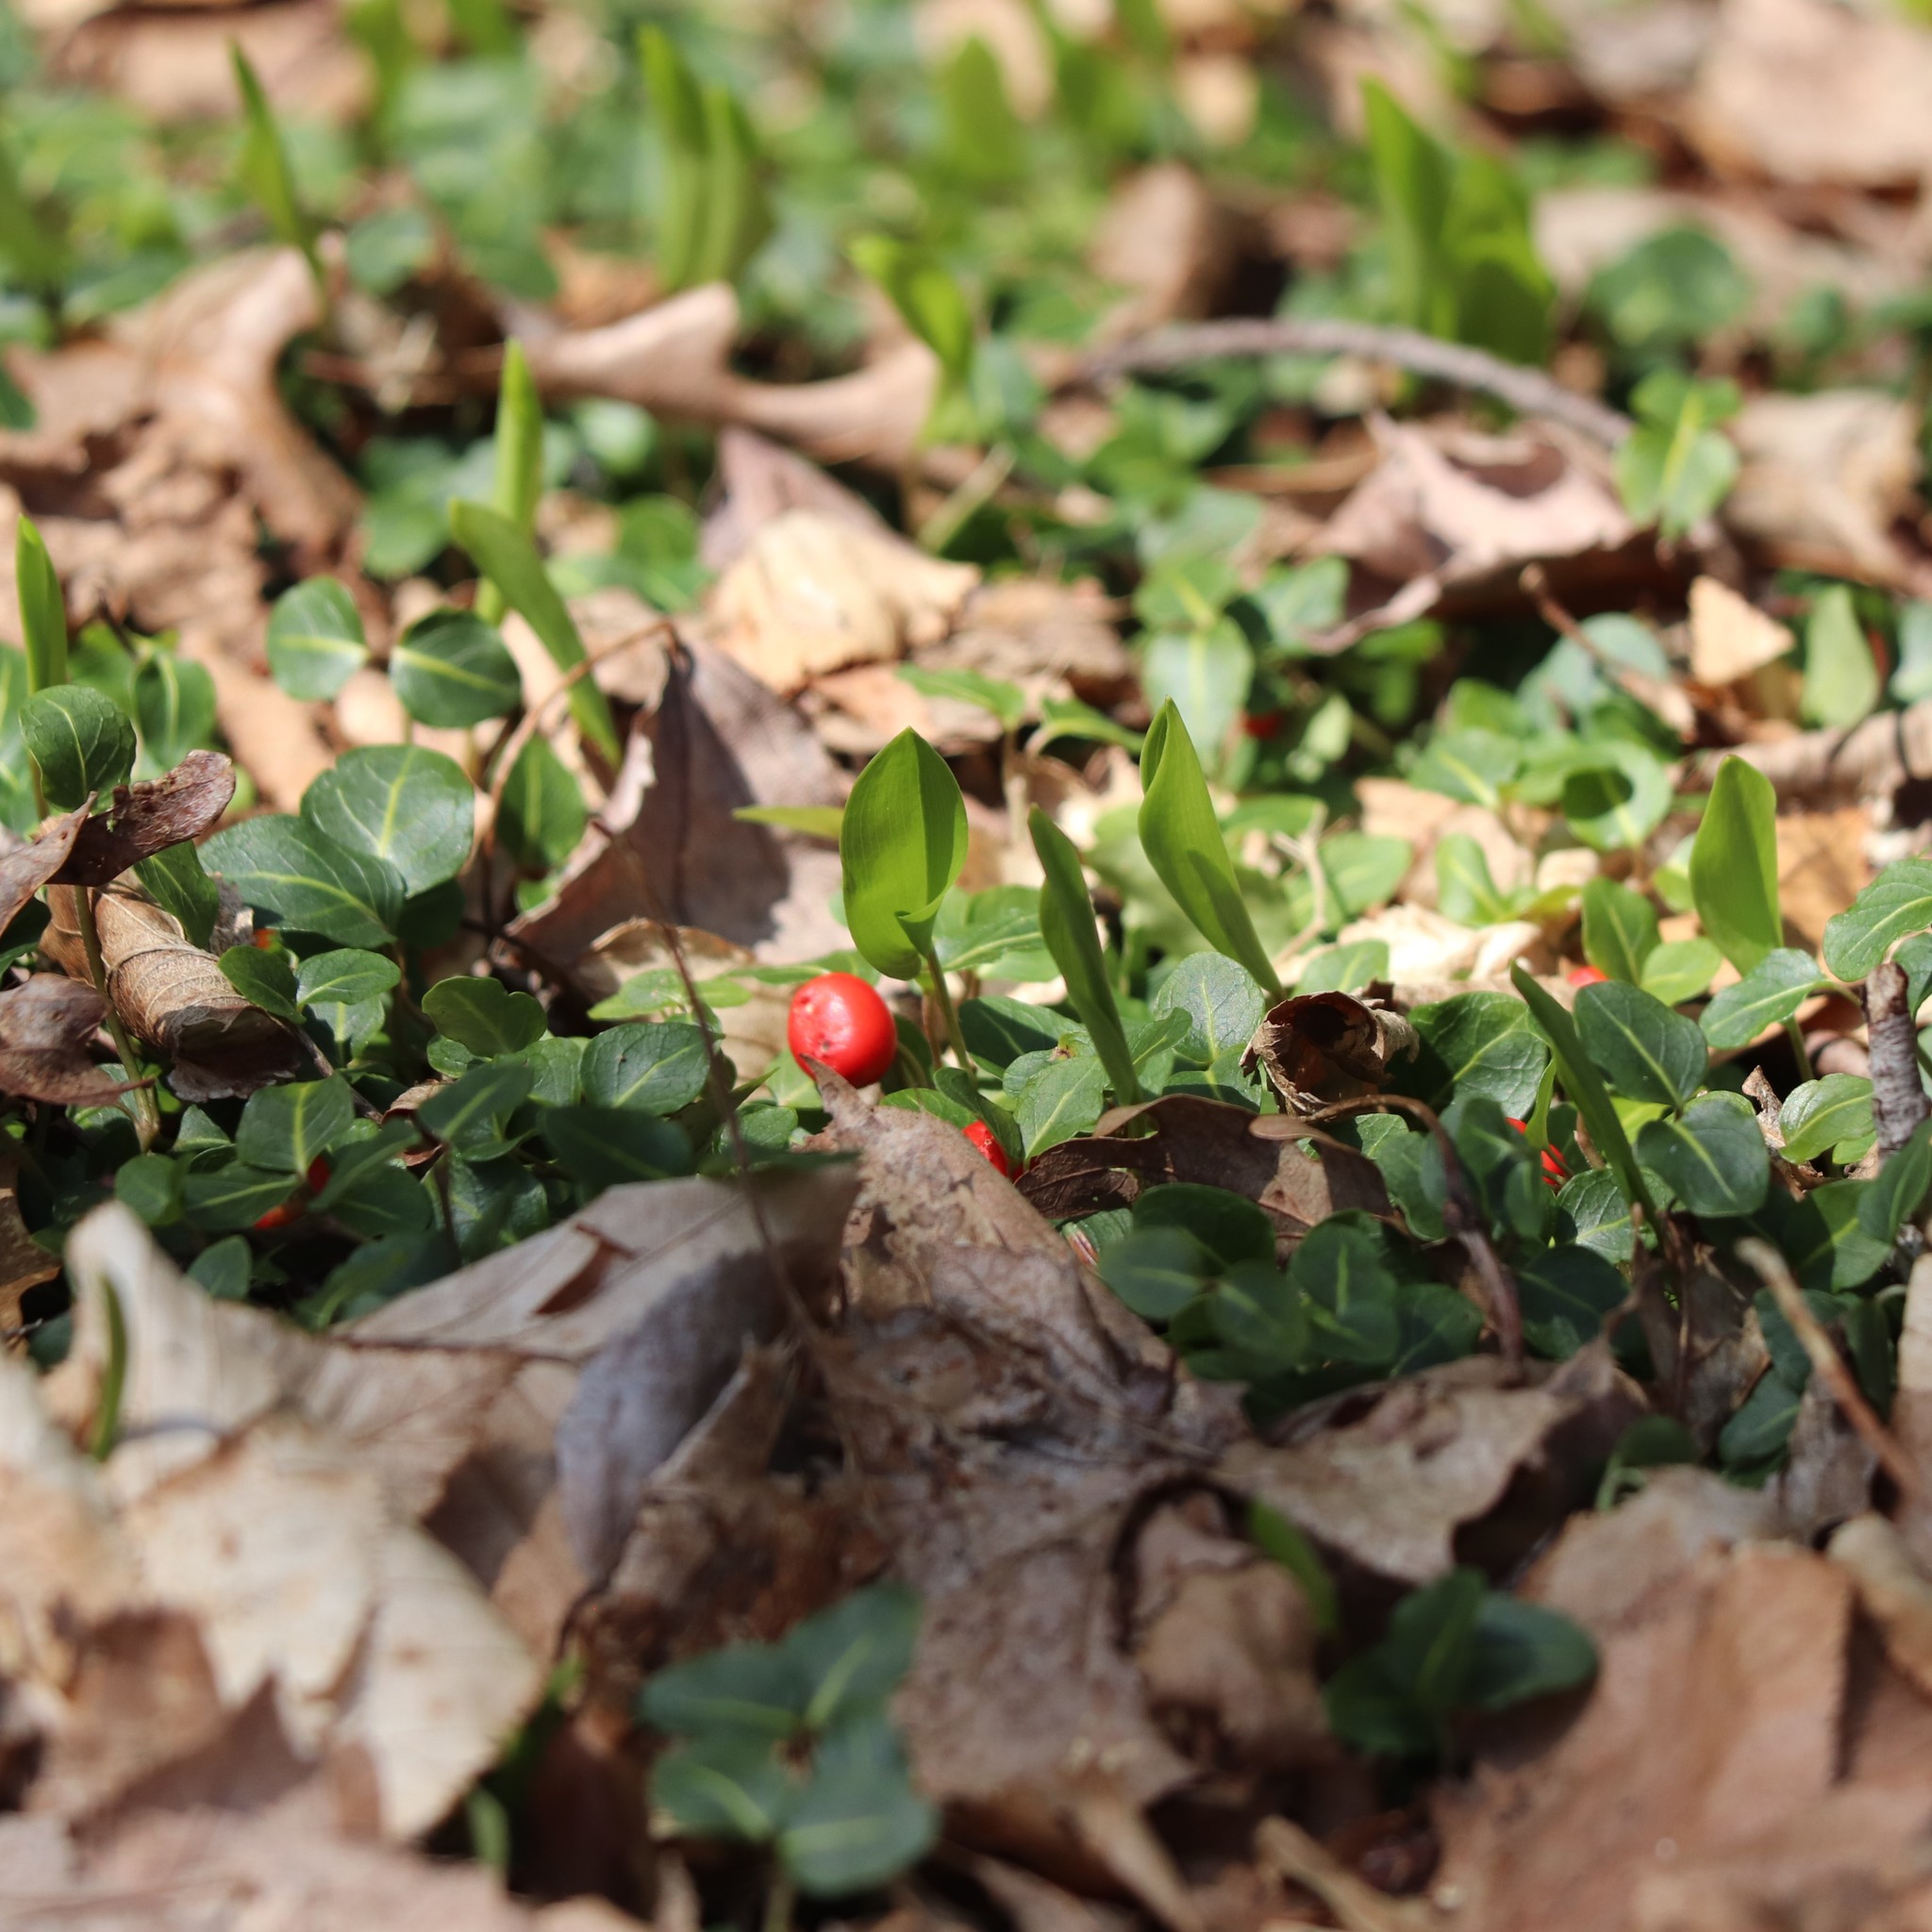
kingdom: Plantae
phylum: Tracheophyta
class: Magnoliopsida
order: Gentianales
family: Rubiaceae
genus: Mitchella
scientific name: Mitchella repens
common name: Partridge-berry
